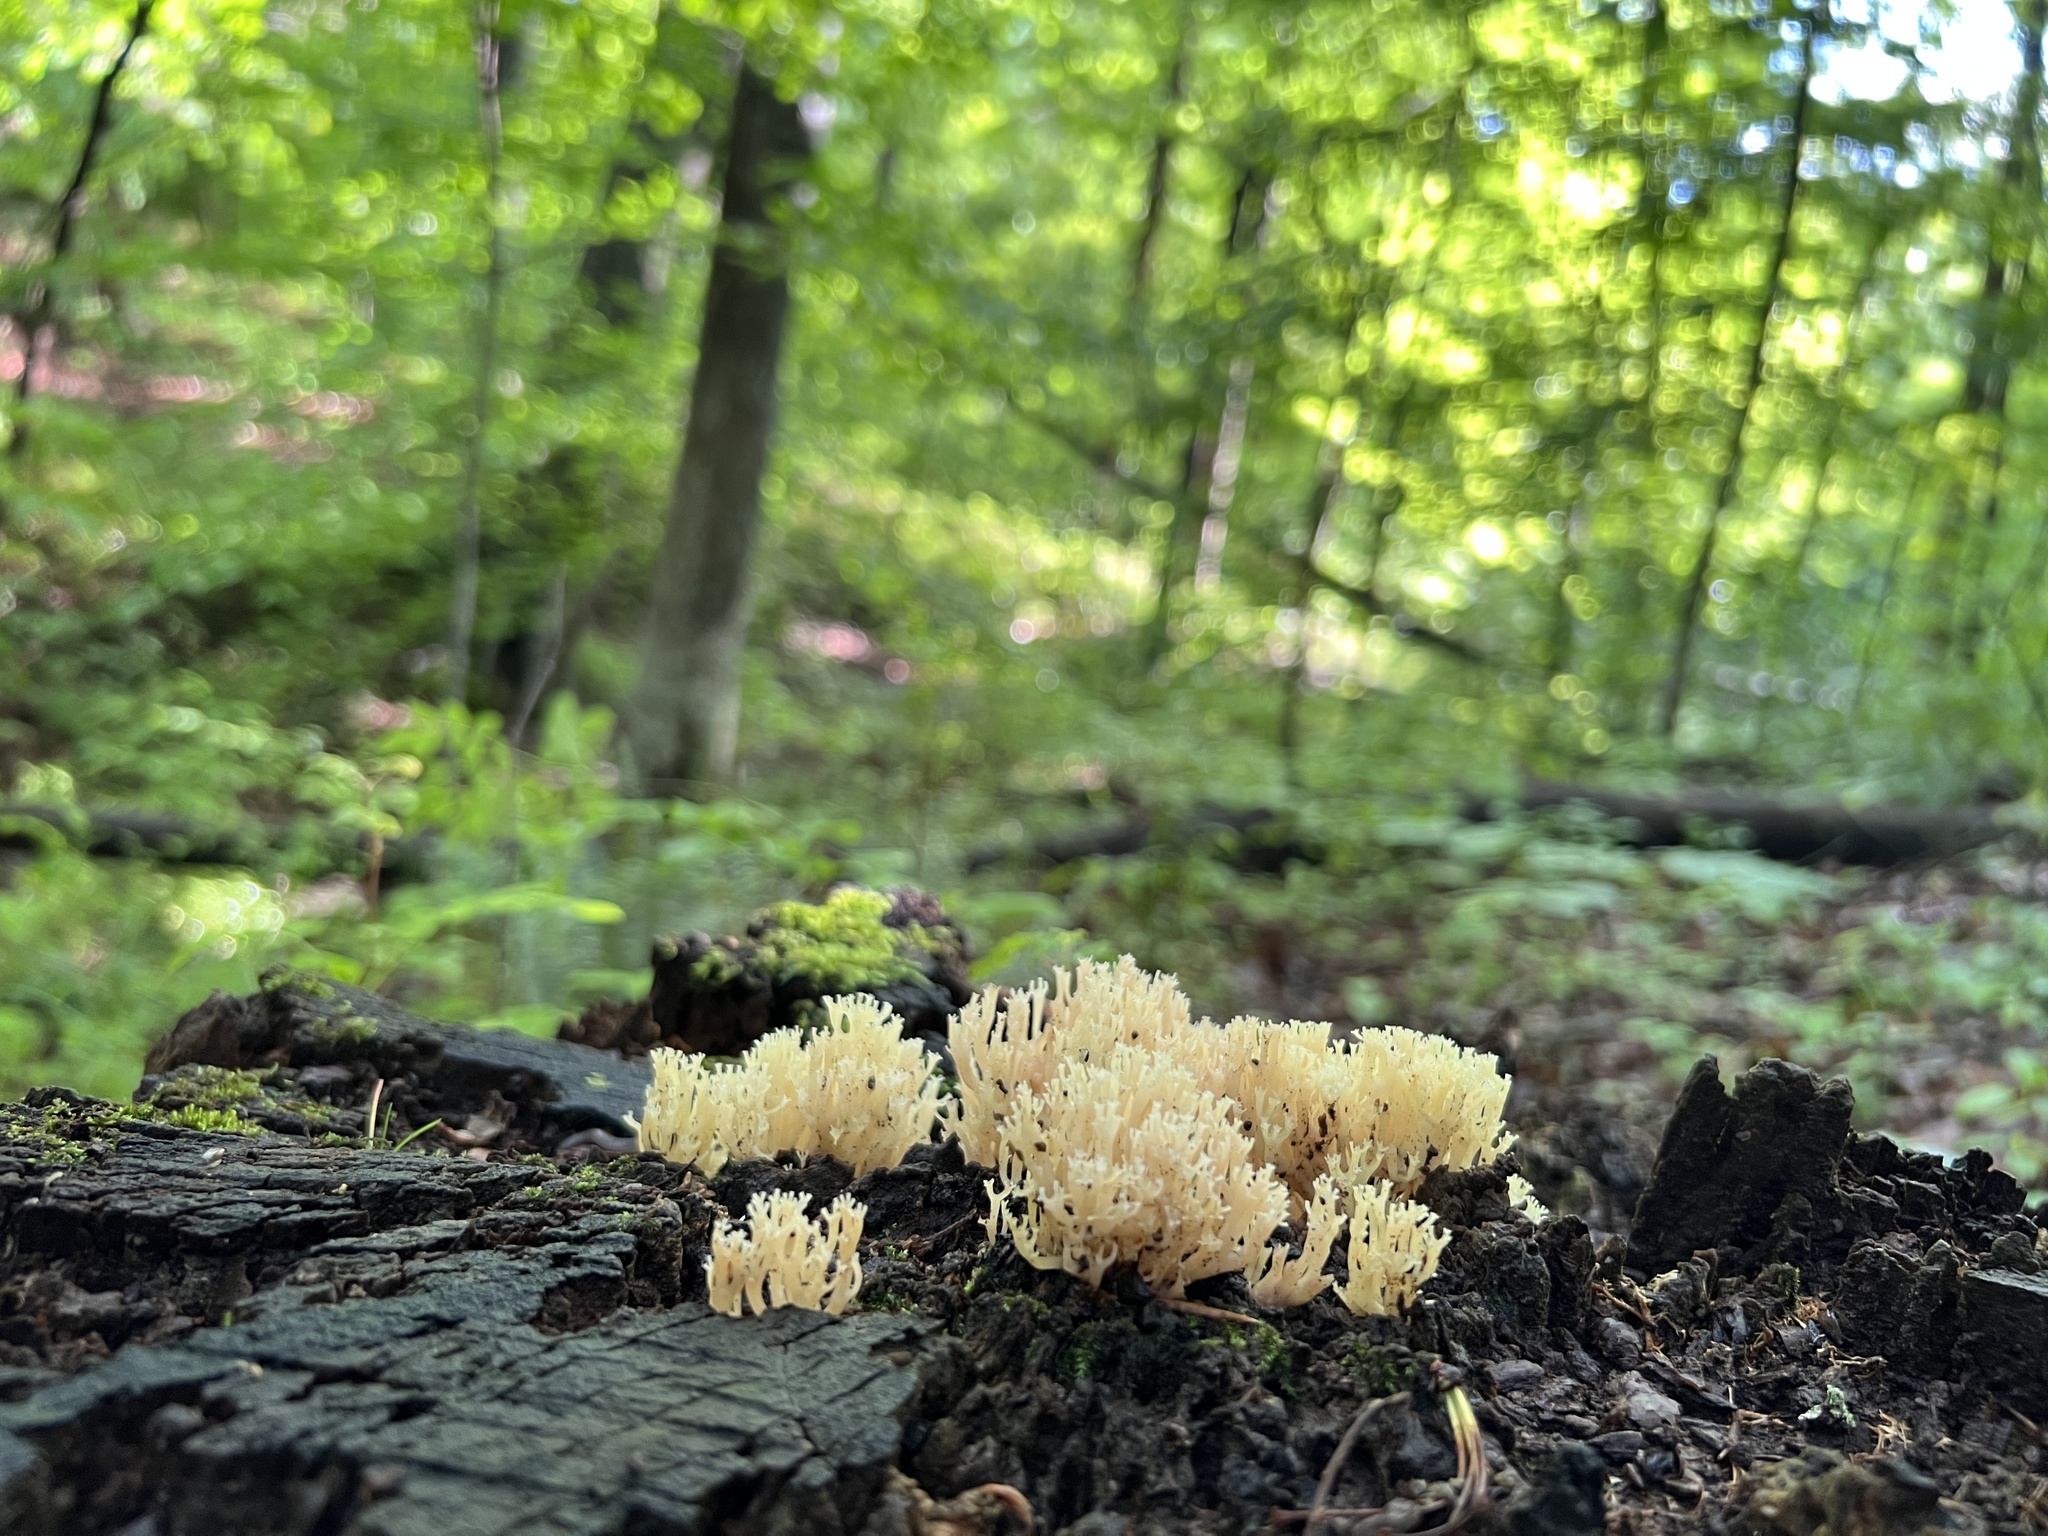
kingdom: Fungi
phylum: Basidiomycota
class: Agaricomycetes
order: Russulales
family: Auriscalpiaceae
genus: Artomyces
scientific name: Artomyces pyxidatus
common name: Crown-tipped coral fungus
